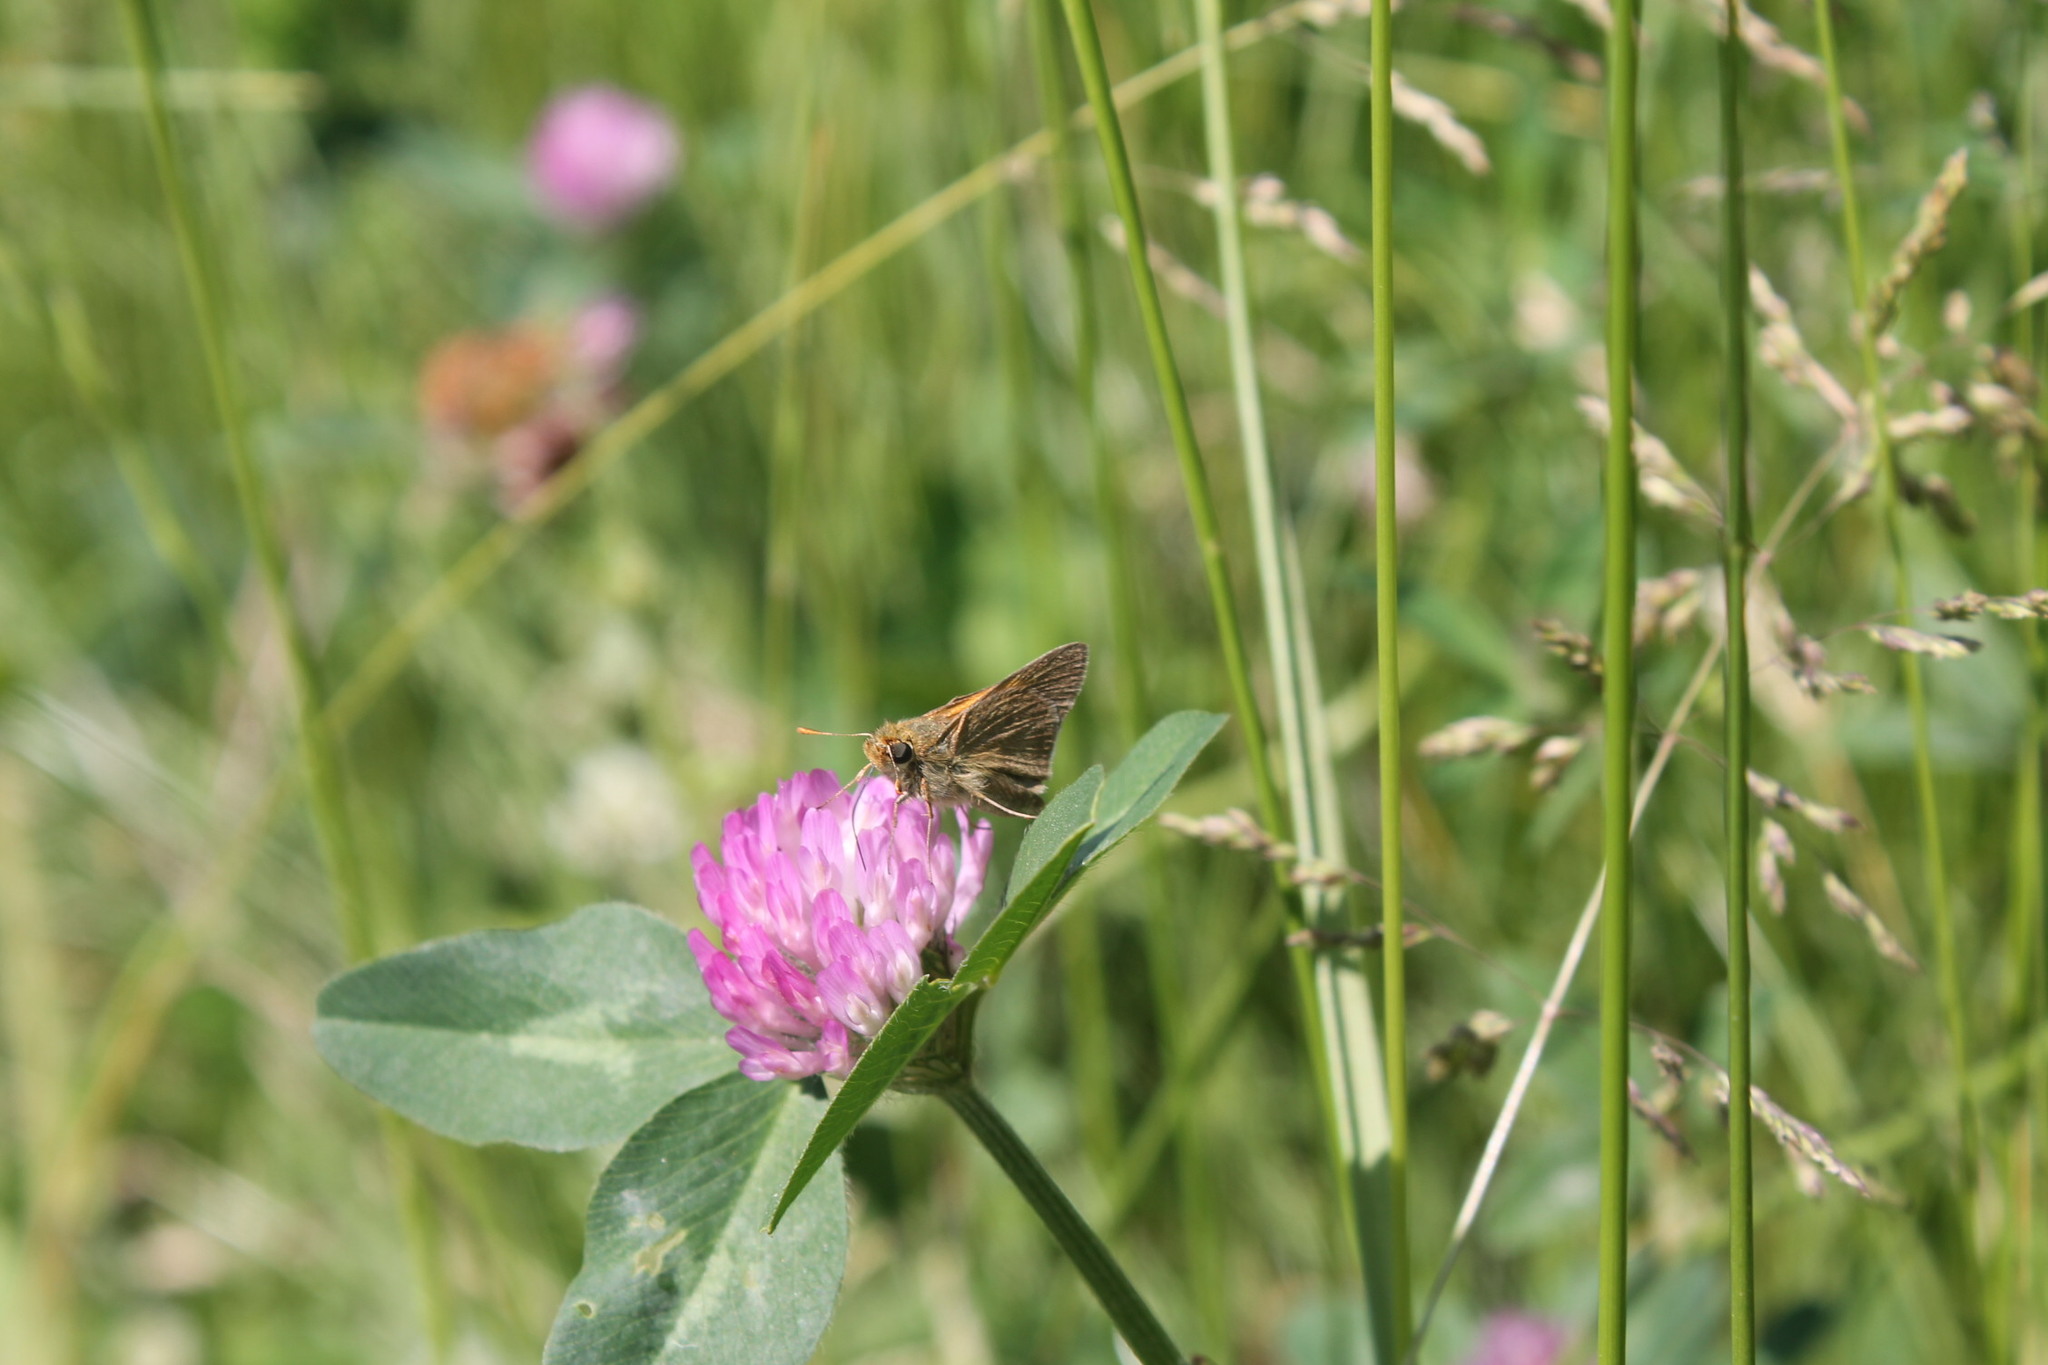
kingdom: Animalia
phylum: Arthropoda
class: Insecta
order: Lepidoptera
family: Hesperiidae
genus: Polites
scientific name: Polites themistocles
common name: Tawny-edged skipper
